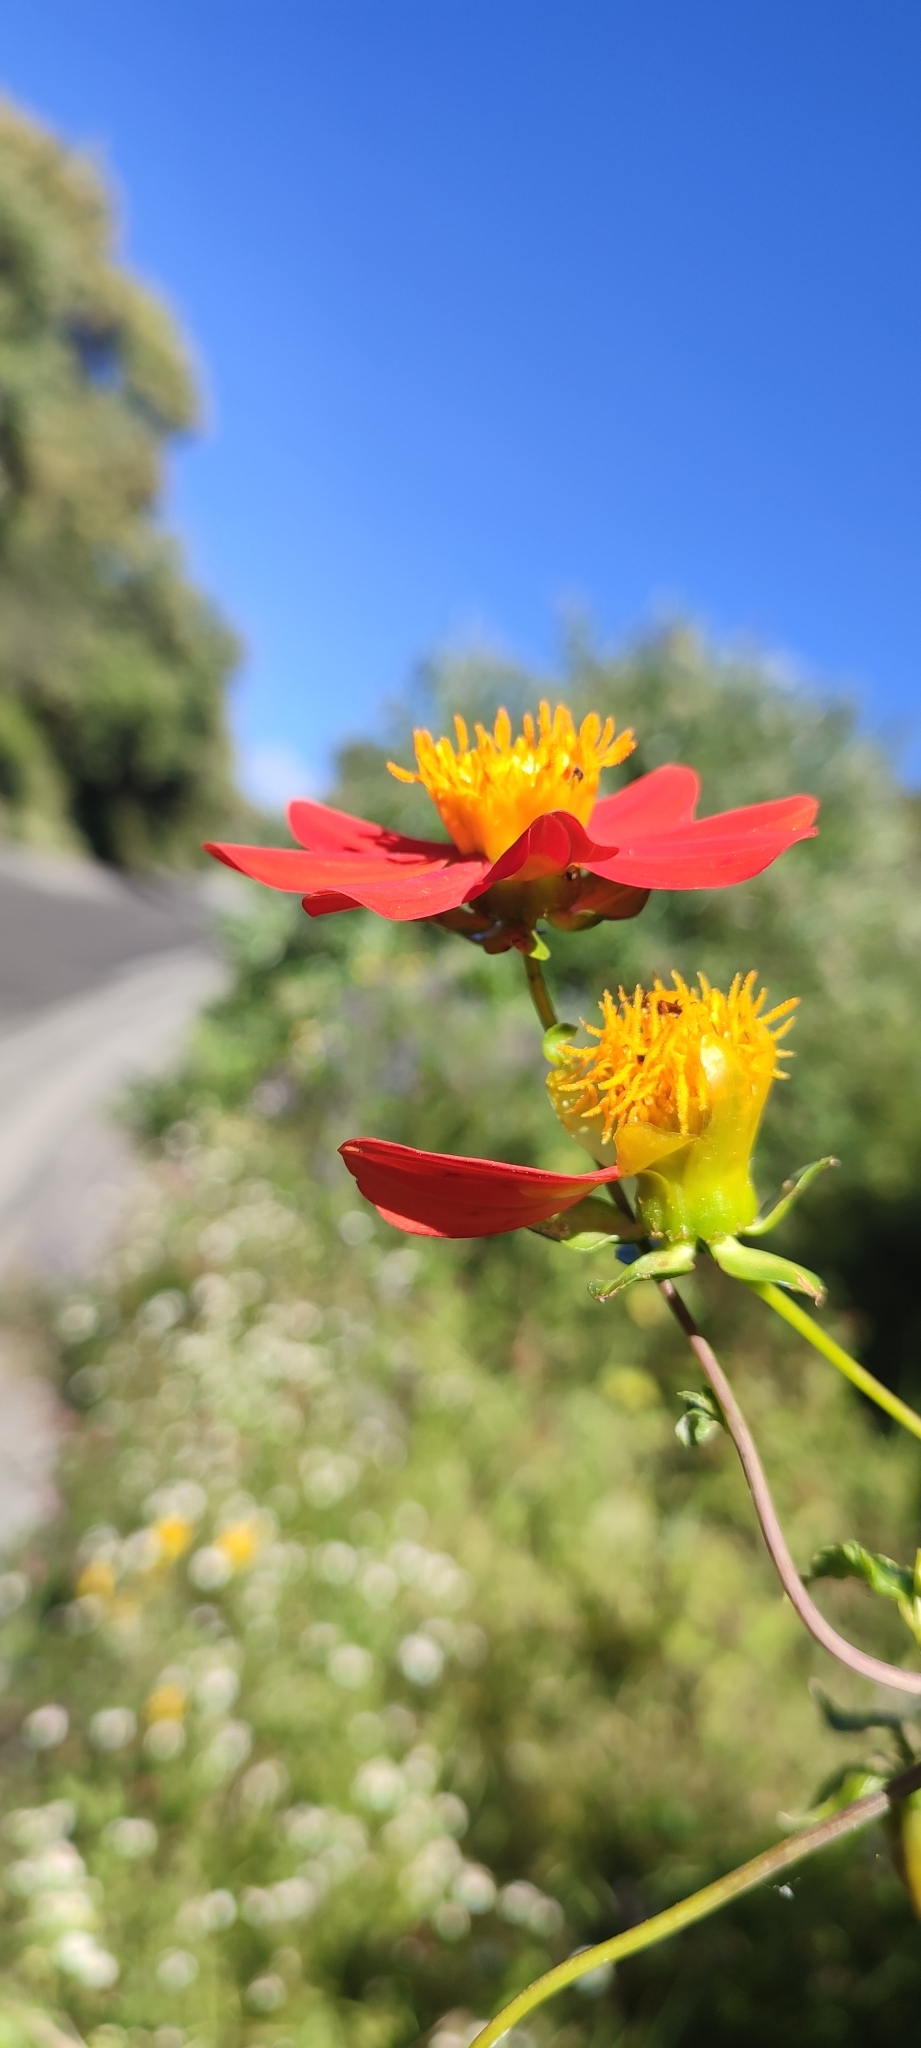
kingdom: Plantae
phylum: Tracheophyta
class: Magnoliopsida
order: Asterales
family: Asteraceae
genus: Dahlia
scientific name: Dahlia coccinea
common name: Red dahlia
